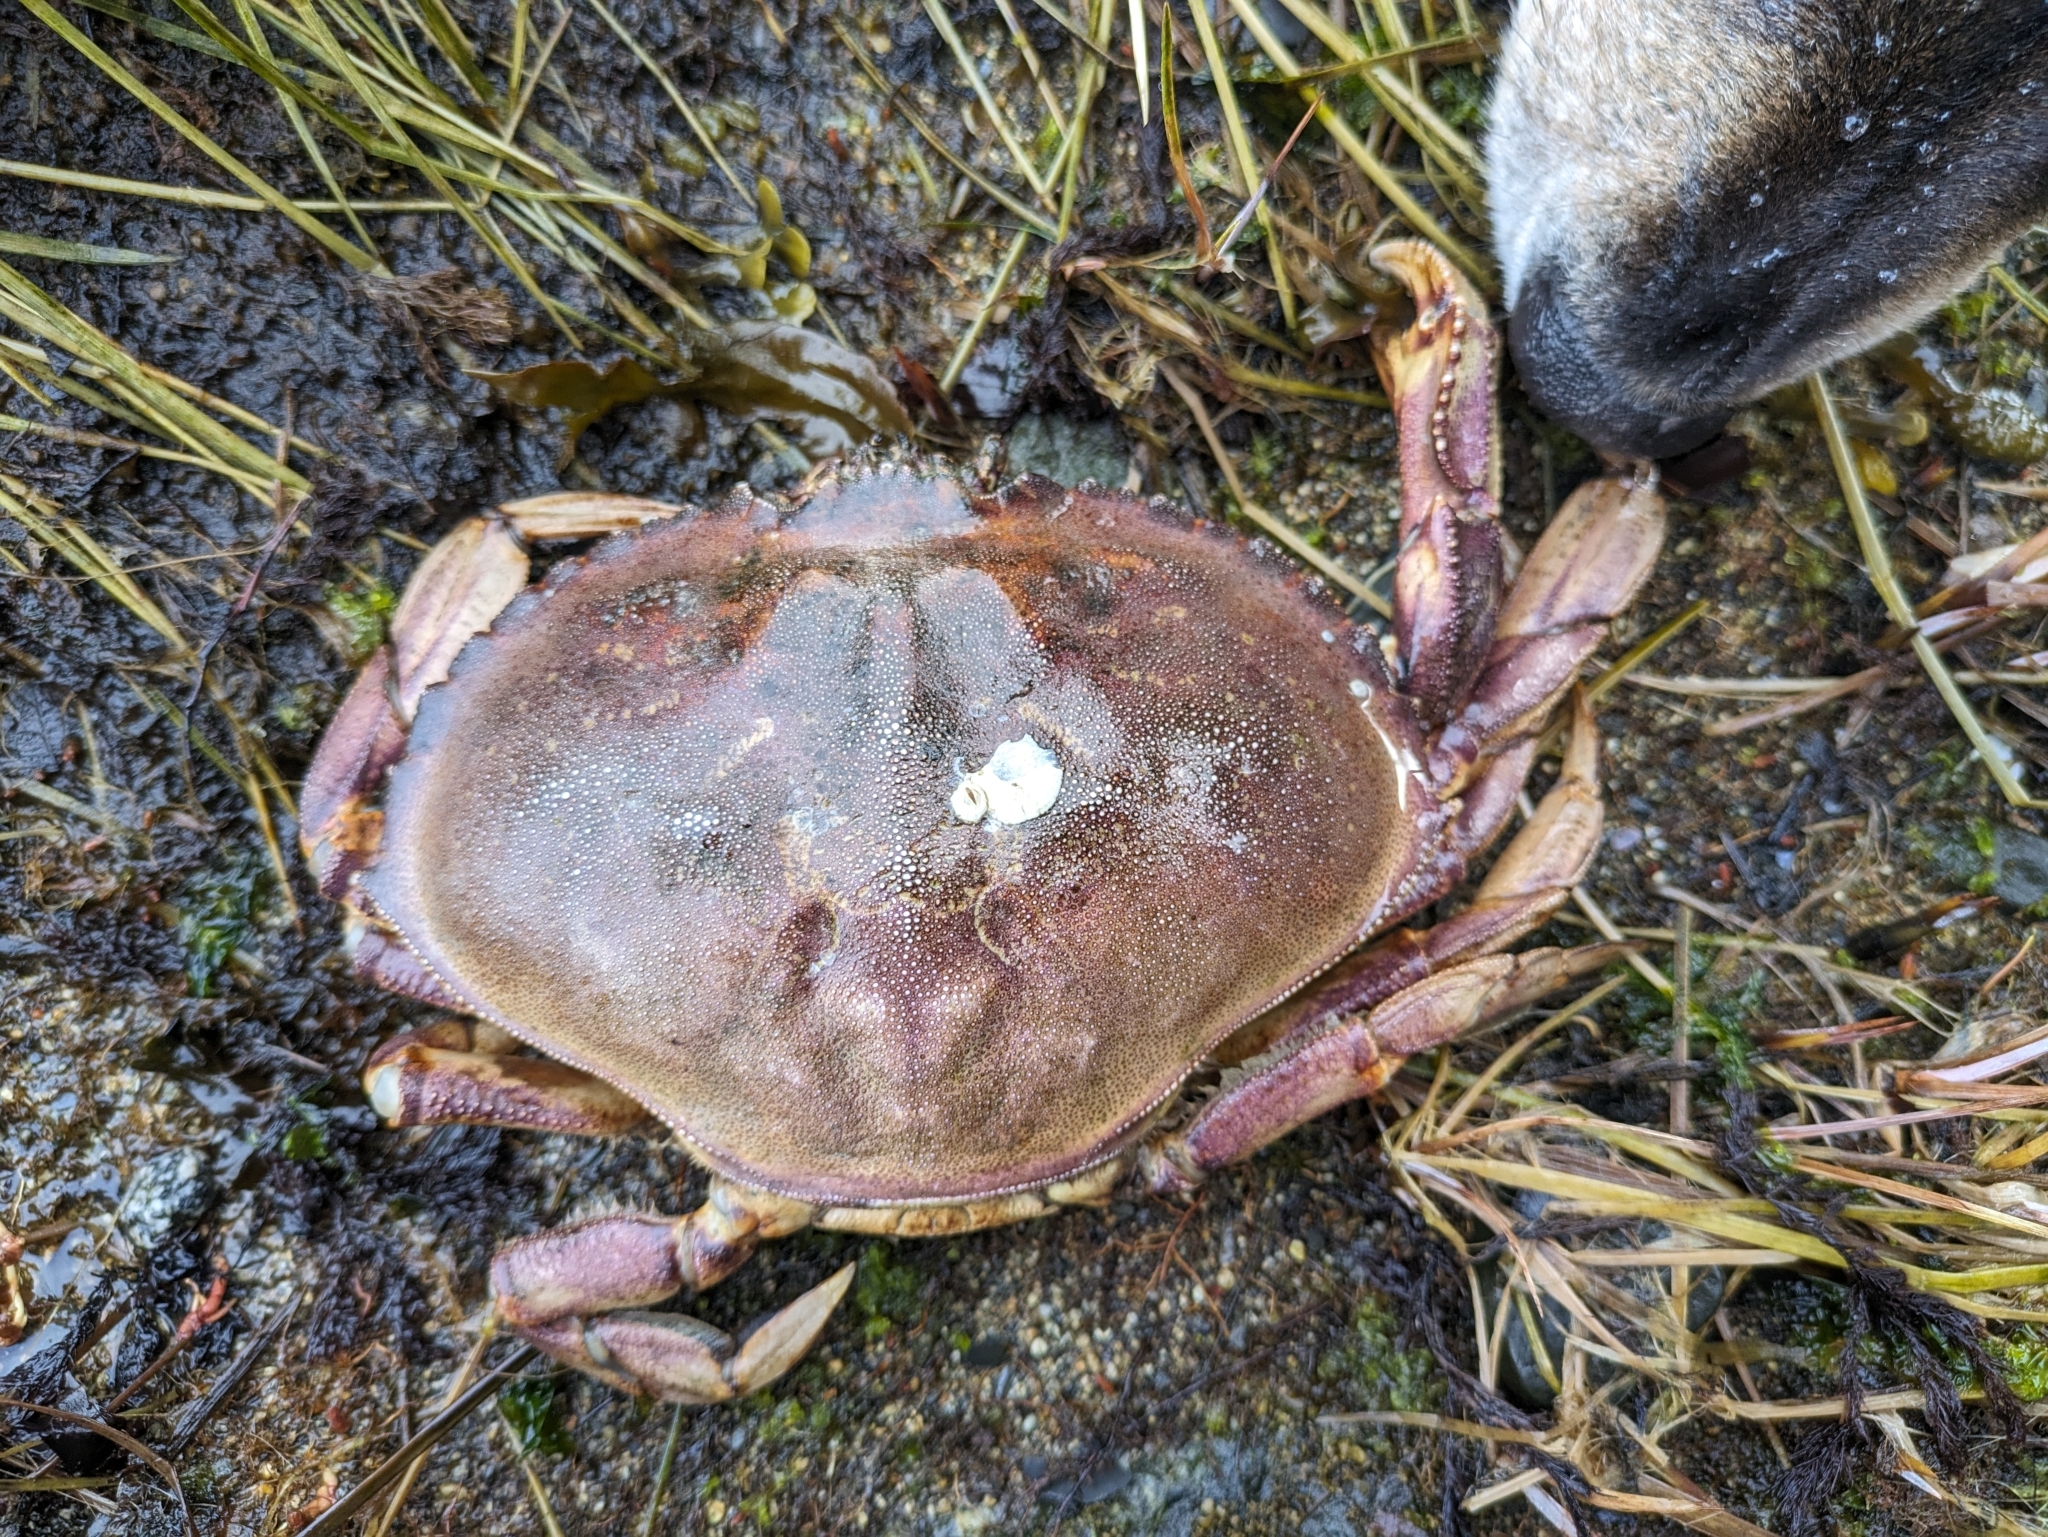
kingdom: Animalia
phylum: Arthropoda
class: Malacostraca
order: Decapoda
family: Cancridae
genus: Metacarcinus
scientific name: Metacarcinus magister
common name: Californian crab
